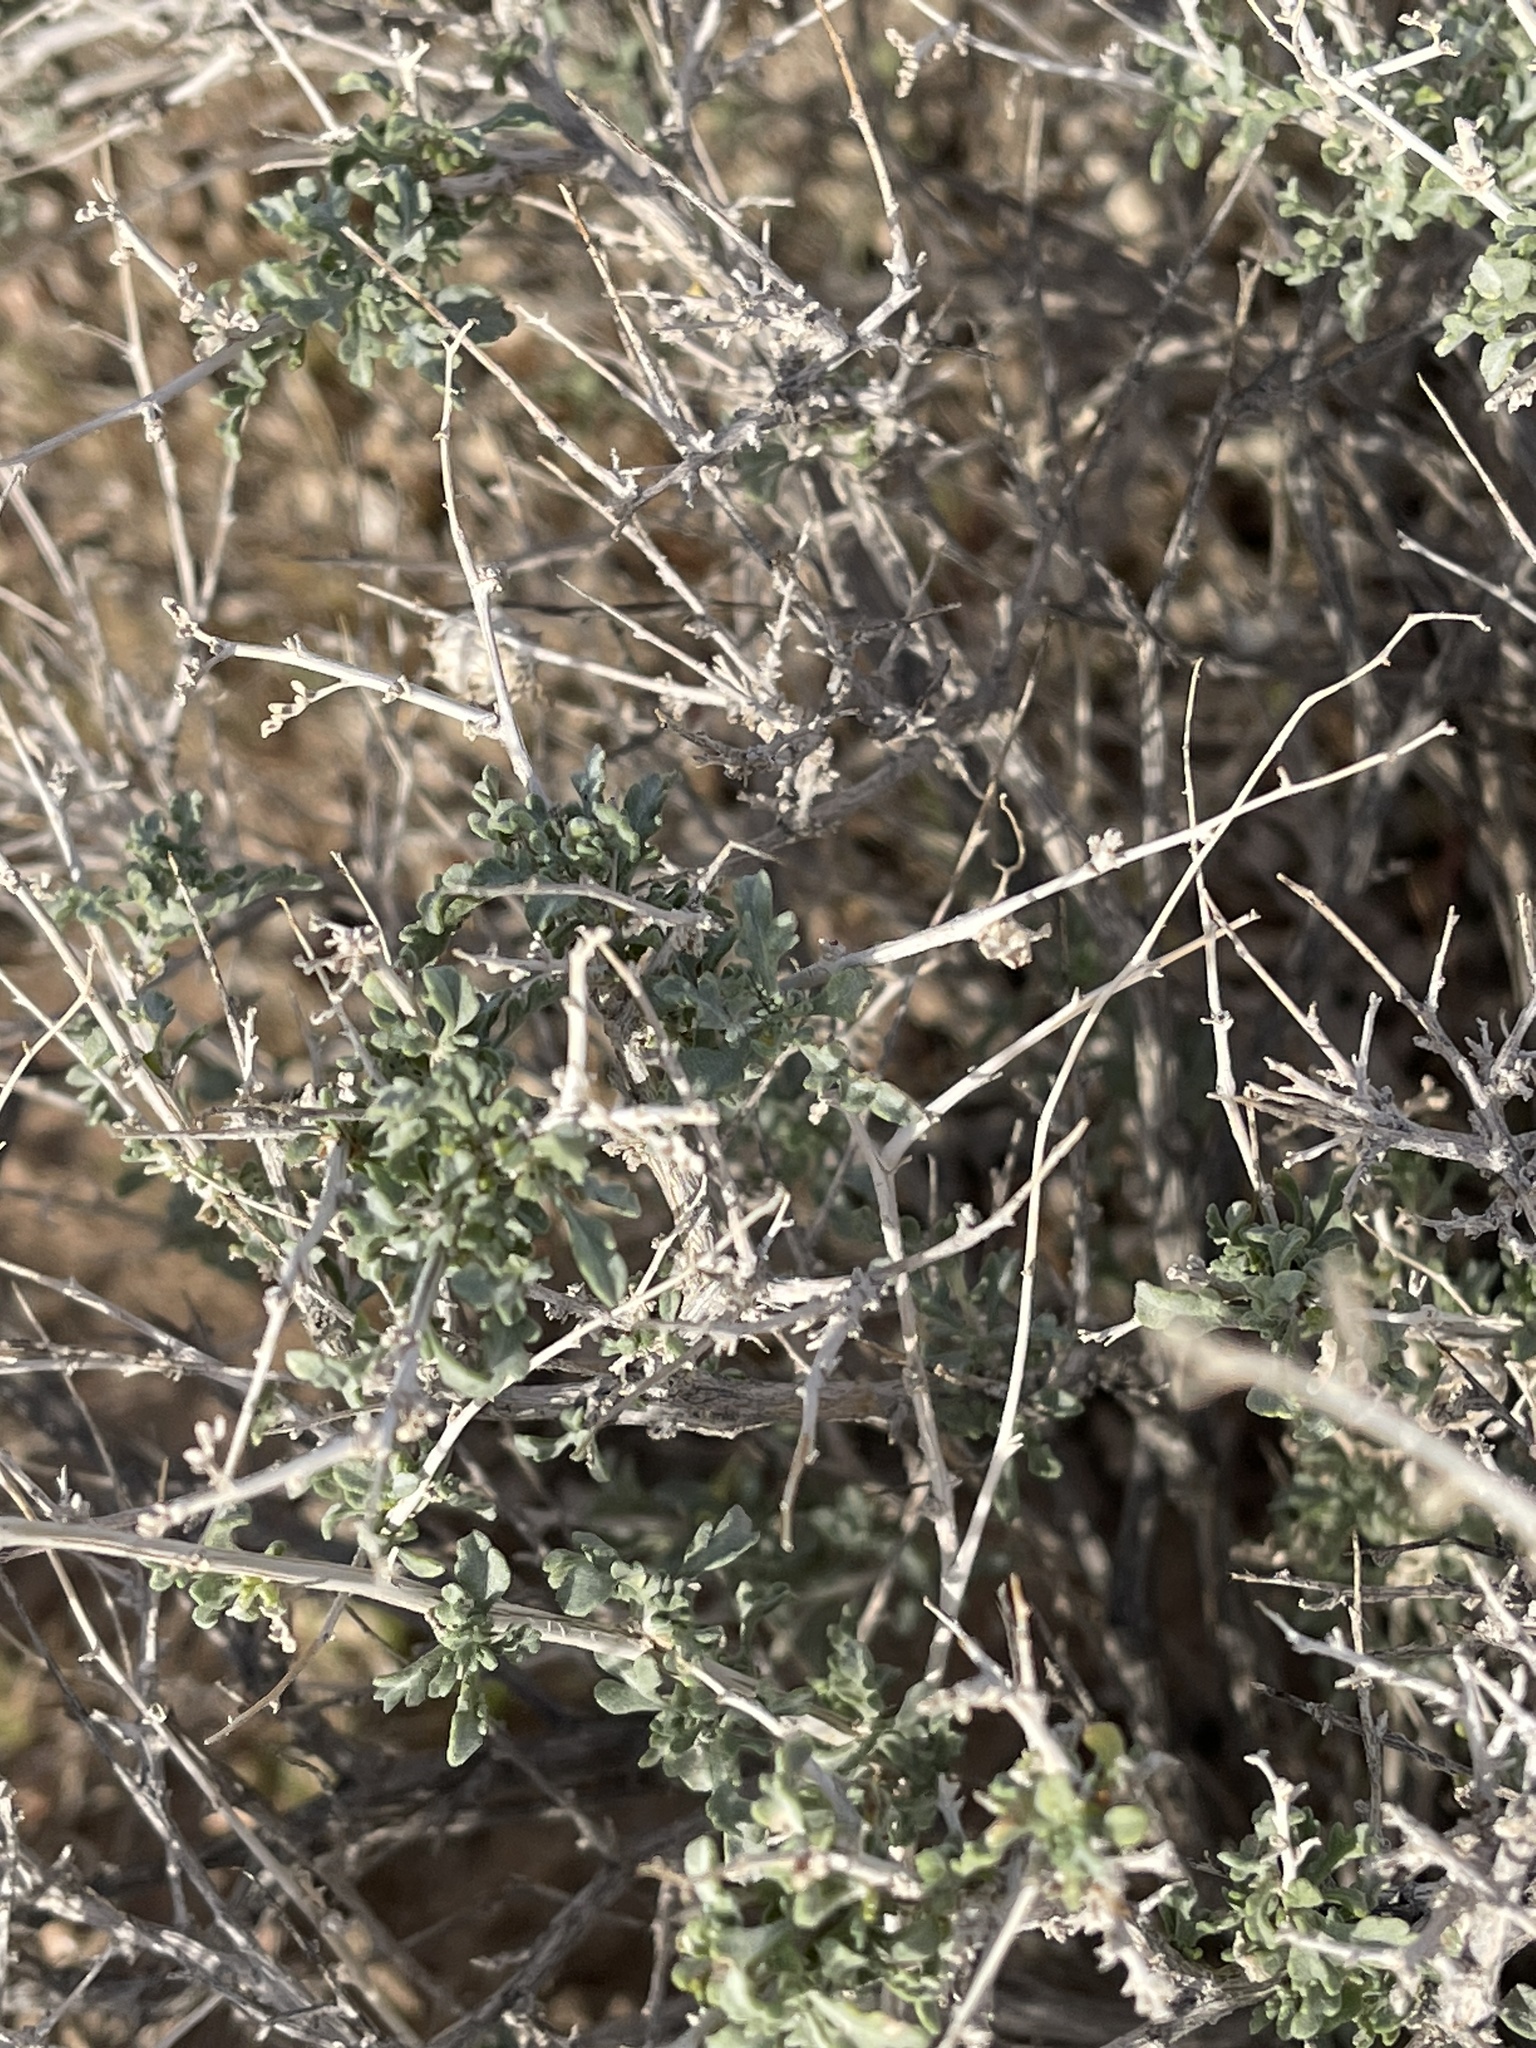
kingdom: Plantae
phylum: Tracheophyta
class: Magnoliopsida
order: Asterales
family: Asteraceae
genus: Ambrosia
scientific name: Ambrosia dumosa
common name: Bur-sage
